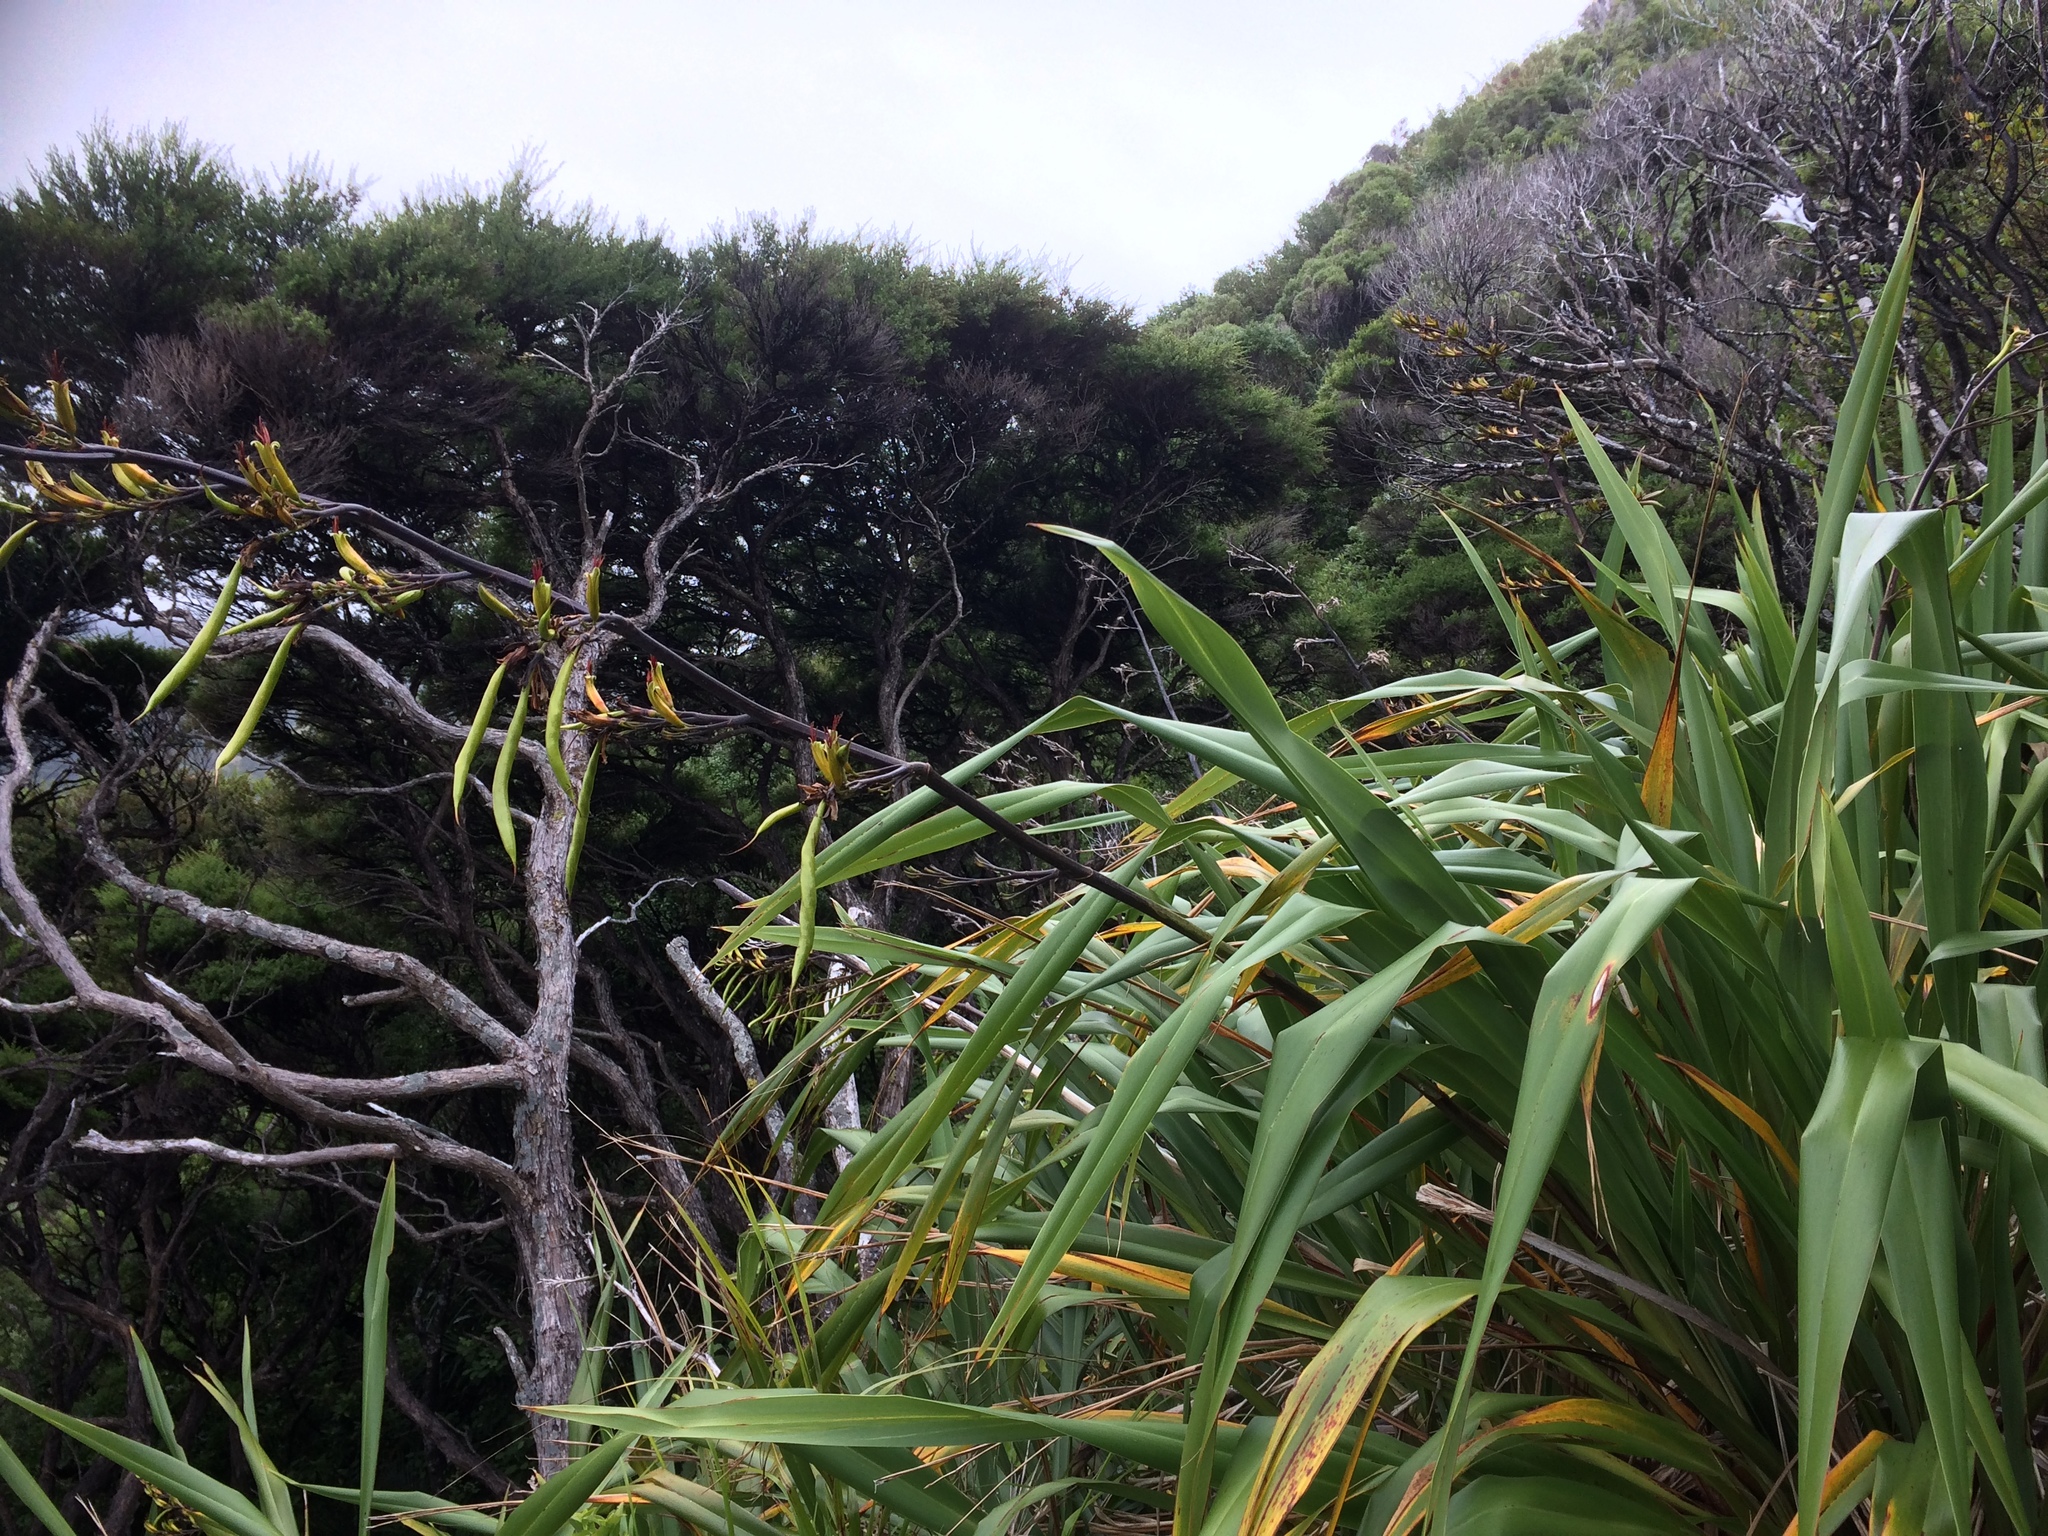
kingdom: Plantae
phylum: Tracheophyta
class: Liliopsida
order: Asparagales
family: Asphodelaceae
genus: Phormium
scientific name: Phormium colensoi
